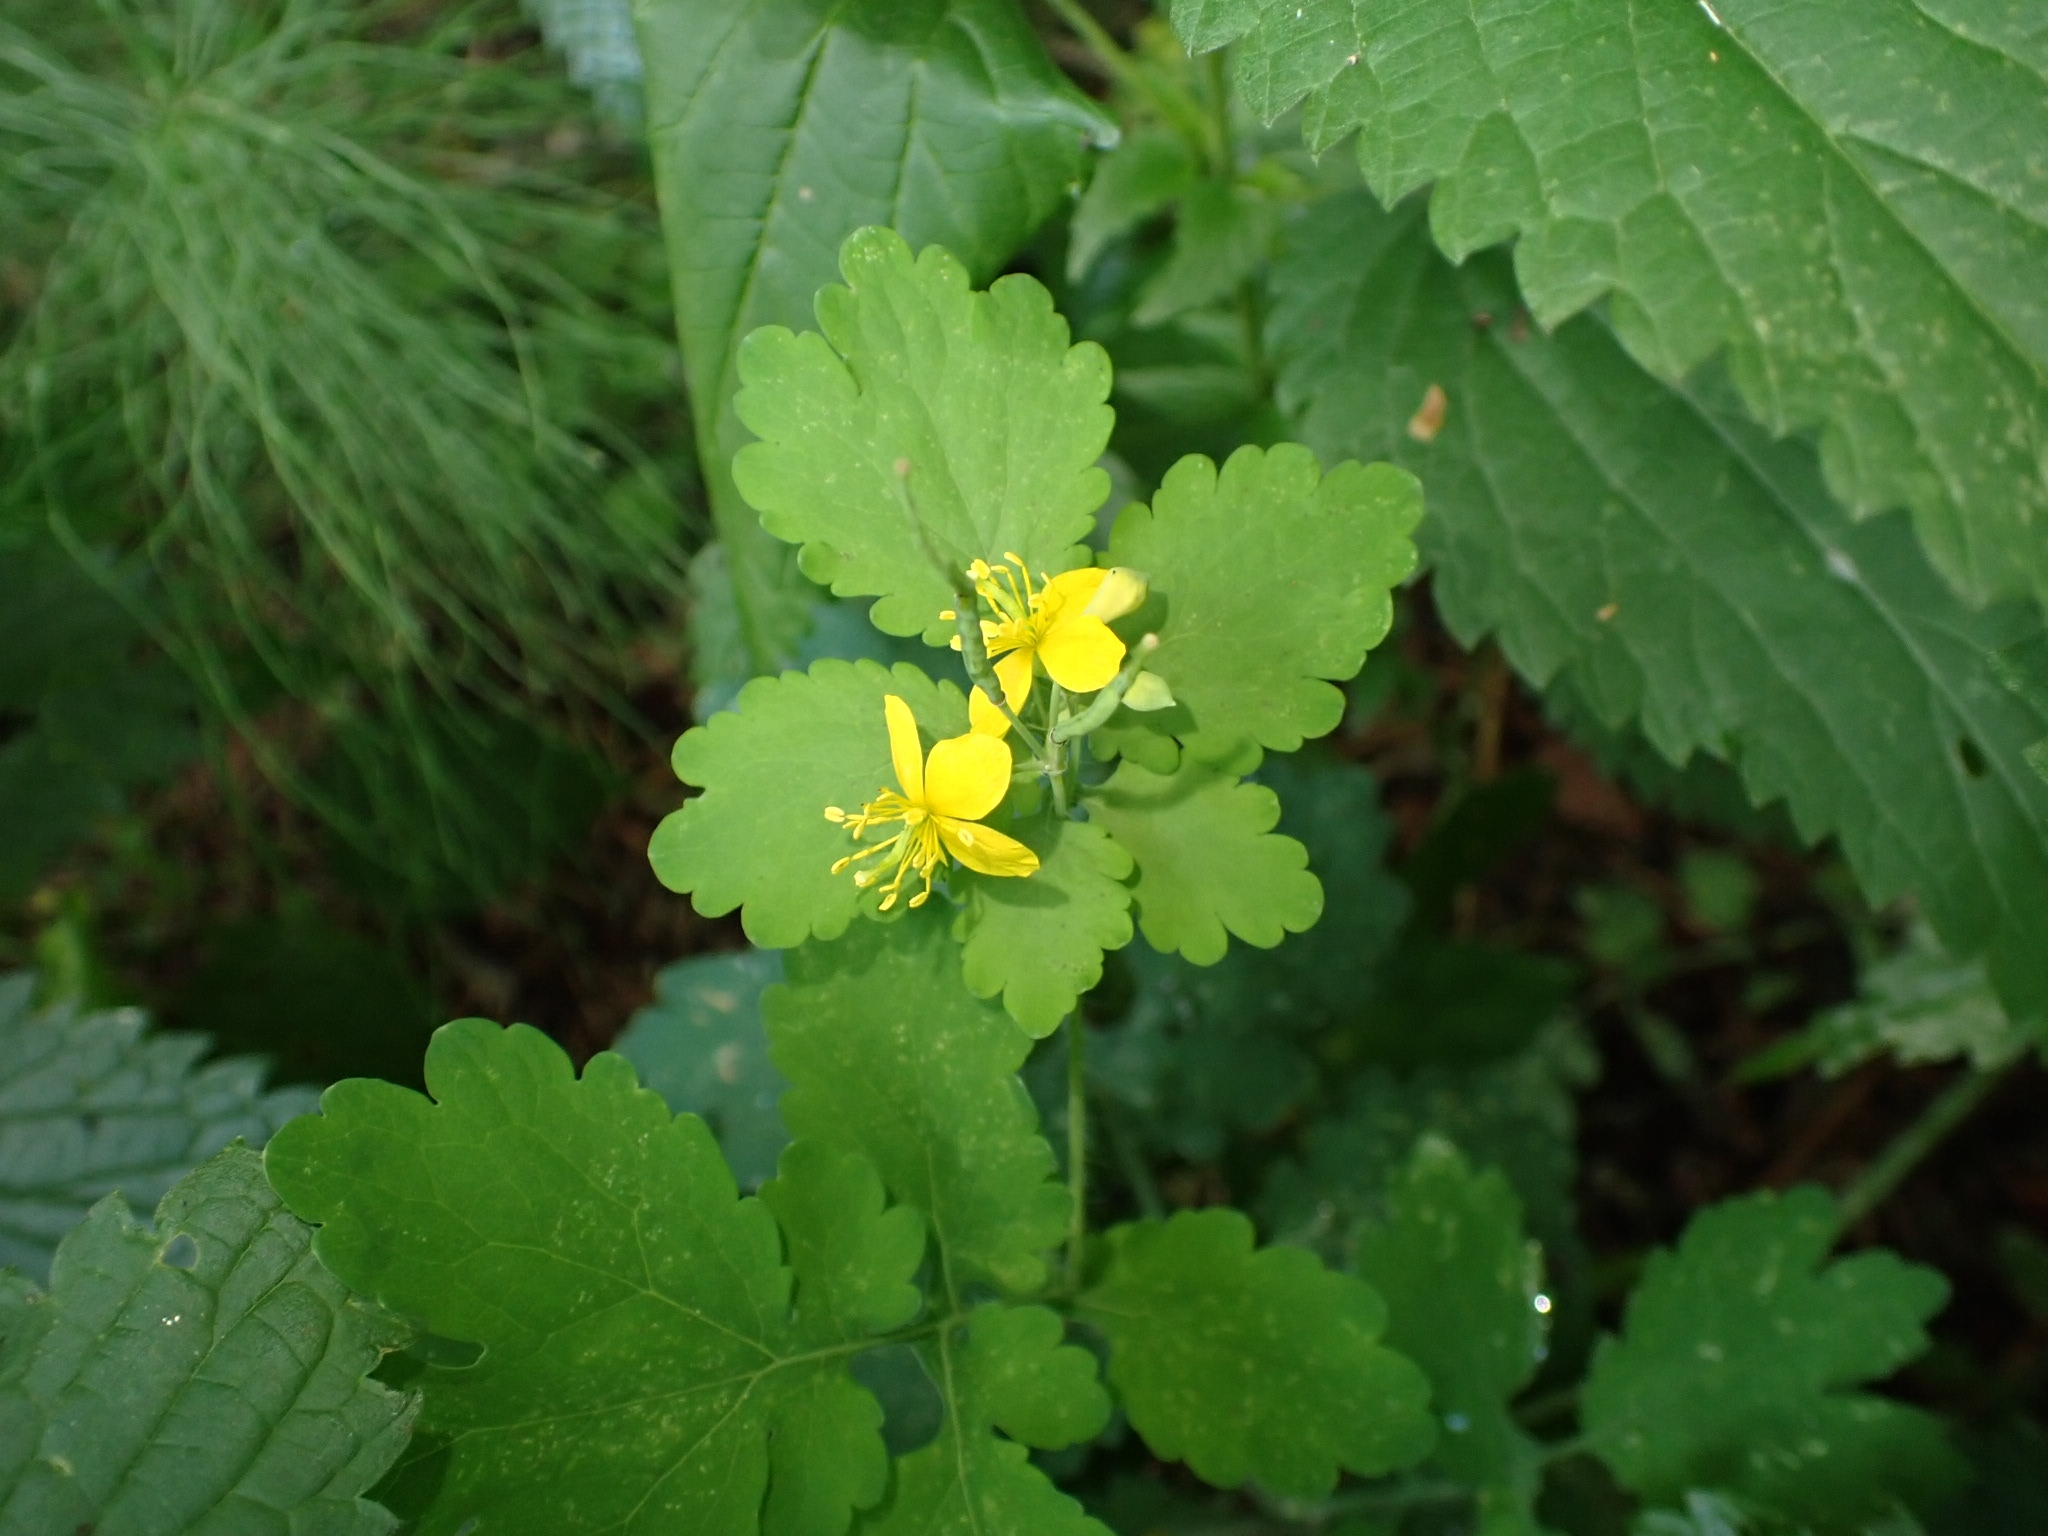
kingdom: Plantae
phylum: Tracheophyta
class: Magnoliopsida
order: Ranunculales
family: Papaveraceae
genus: Chelidonium
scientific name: Chelidonium majus
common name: Greater celandine
